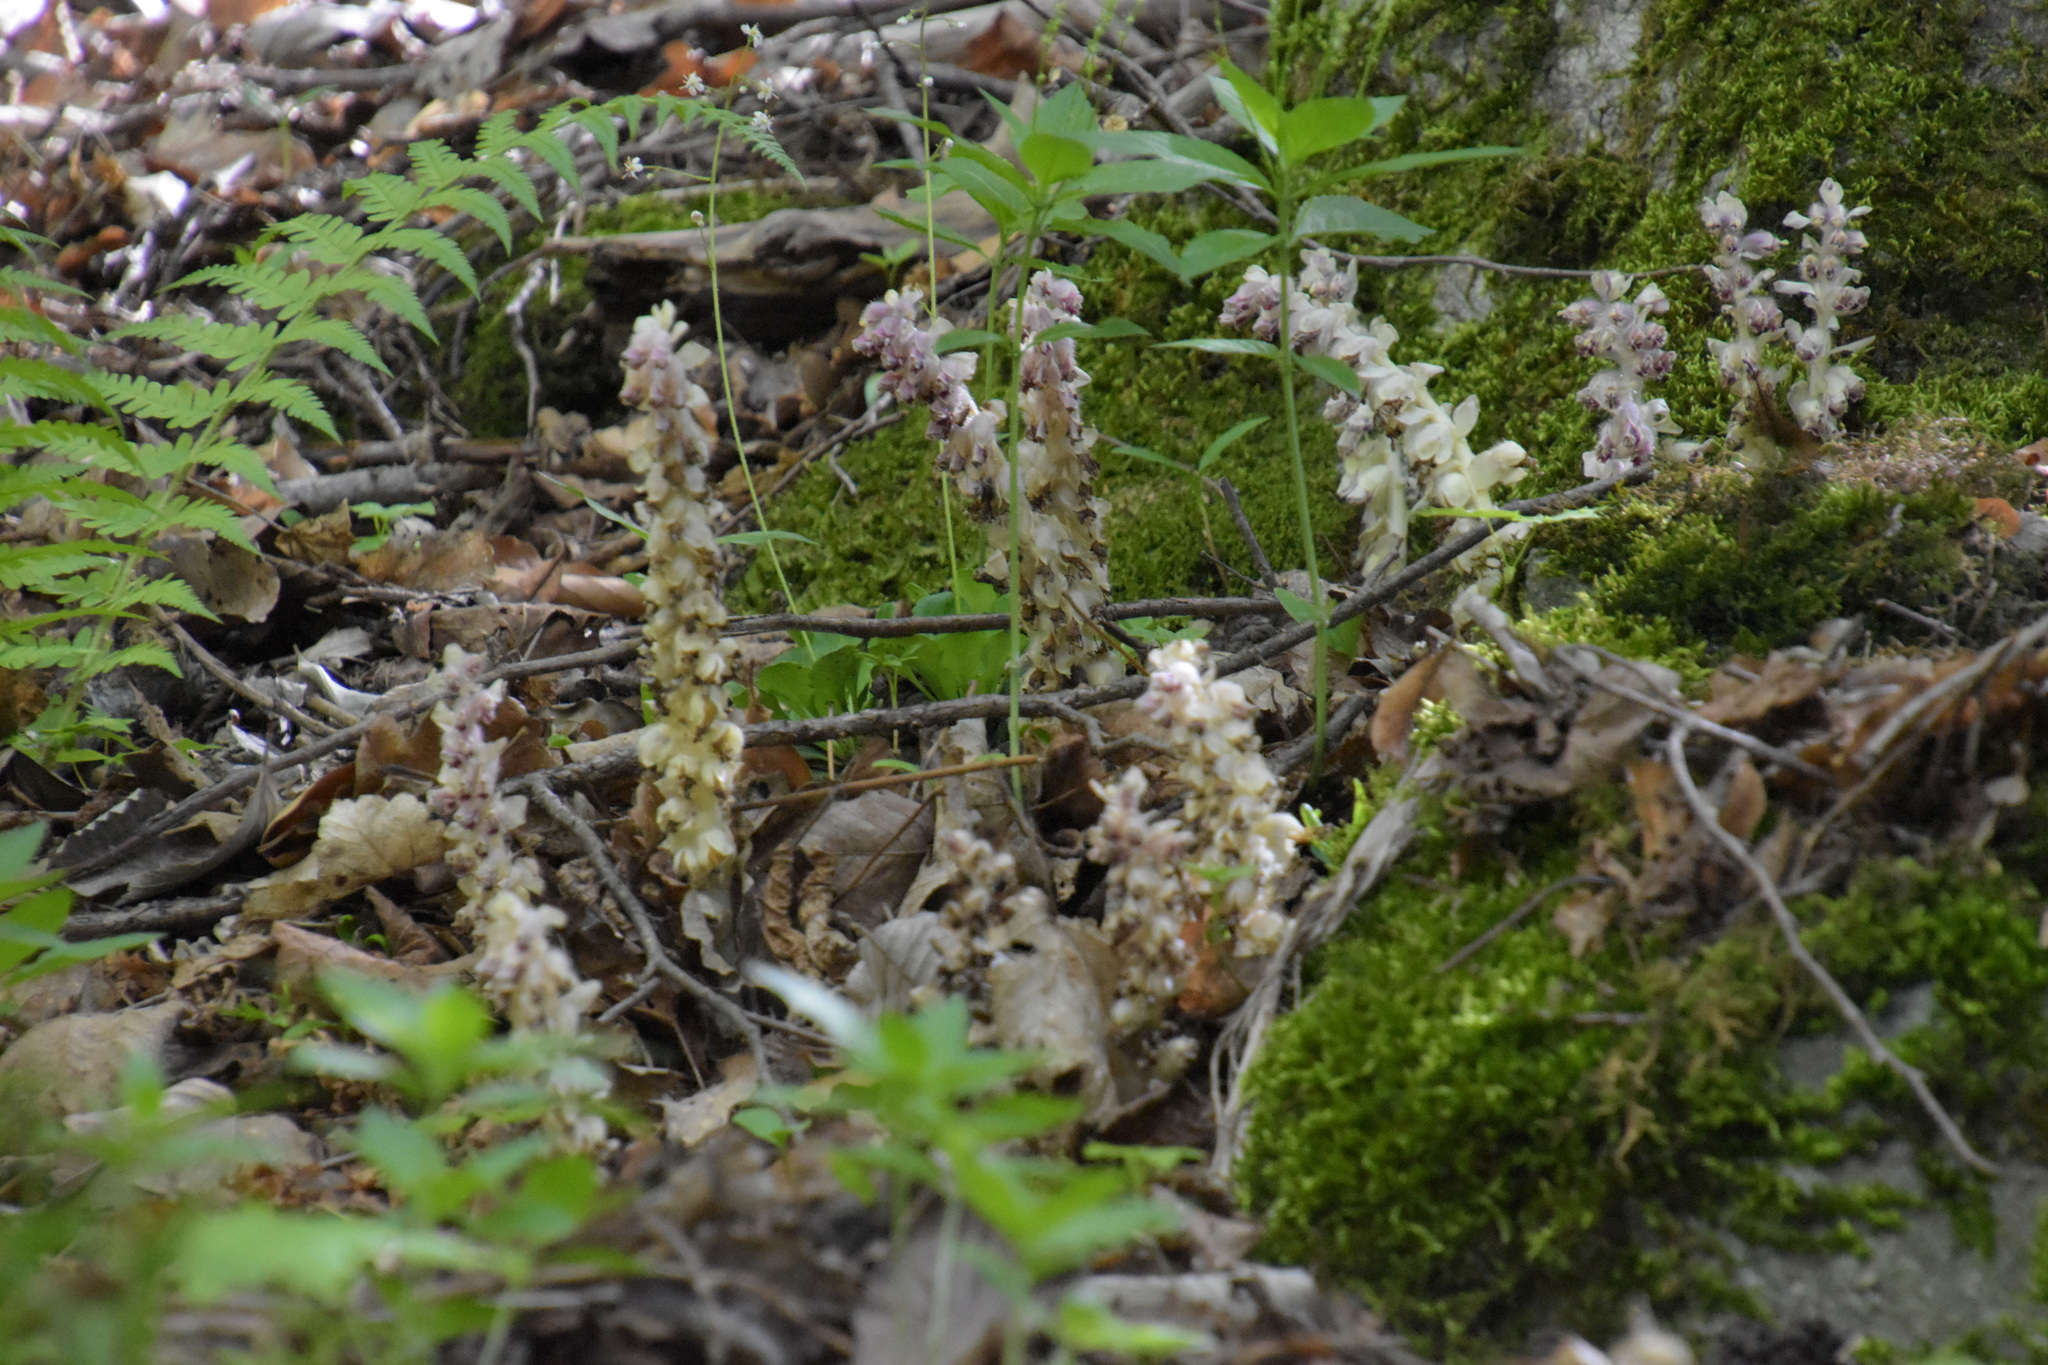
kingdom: Plantae
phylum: Tracheophyta
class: Magnoliopsida
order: Lamiales
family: Orobanchaceae
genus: Lathraea
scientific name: Lathraea squamaria
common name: Toothwort
